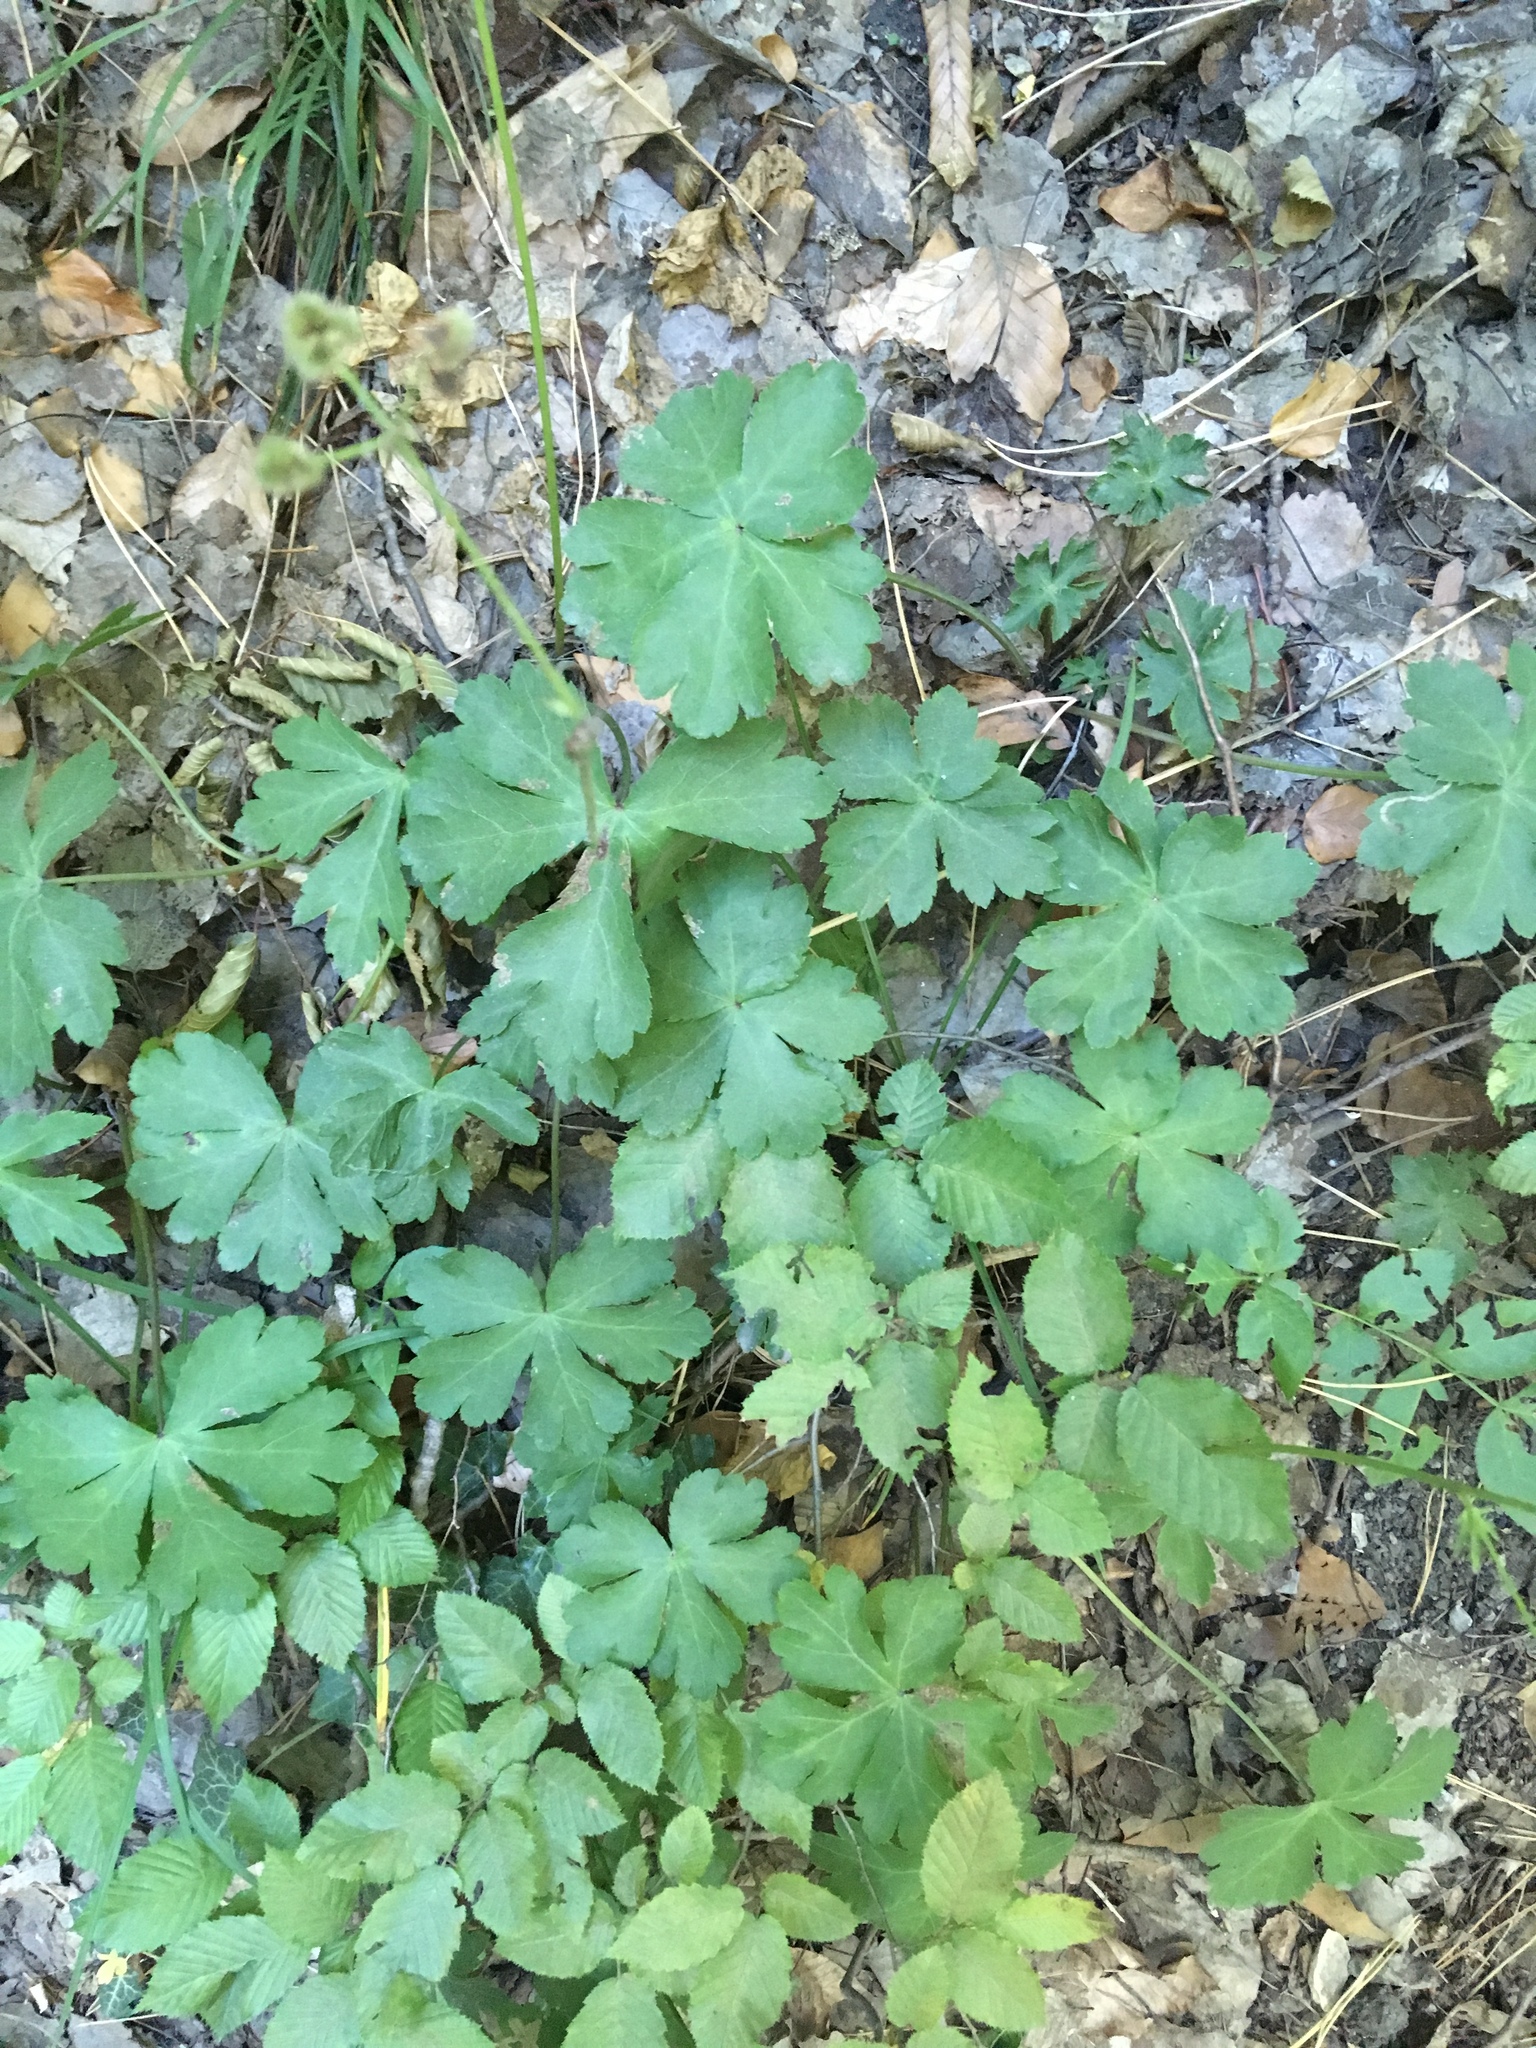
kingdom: Plantae
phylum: Tracheophyta
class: Magnoliopsida
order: Apiales
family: Apiaceae
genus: Sanicula
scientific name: Sanicula europaea
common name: Sanicle
